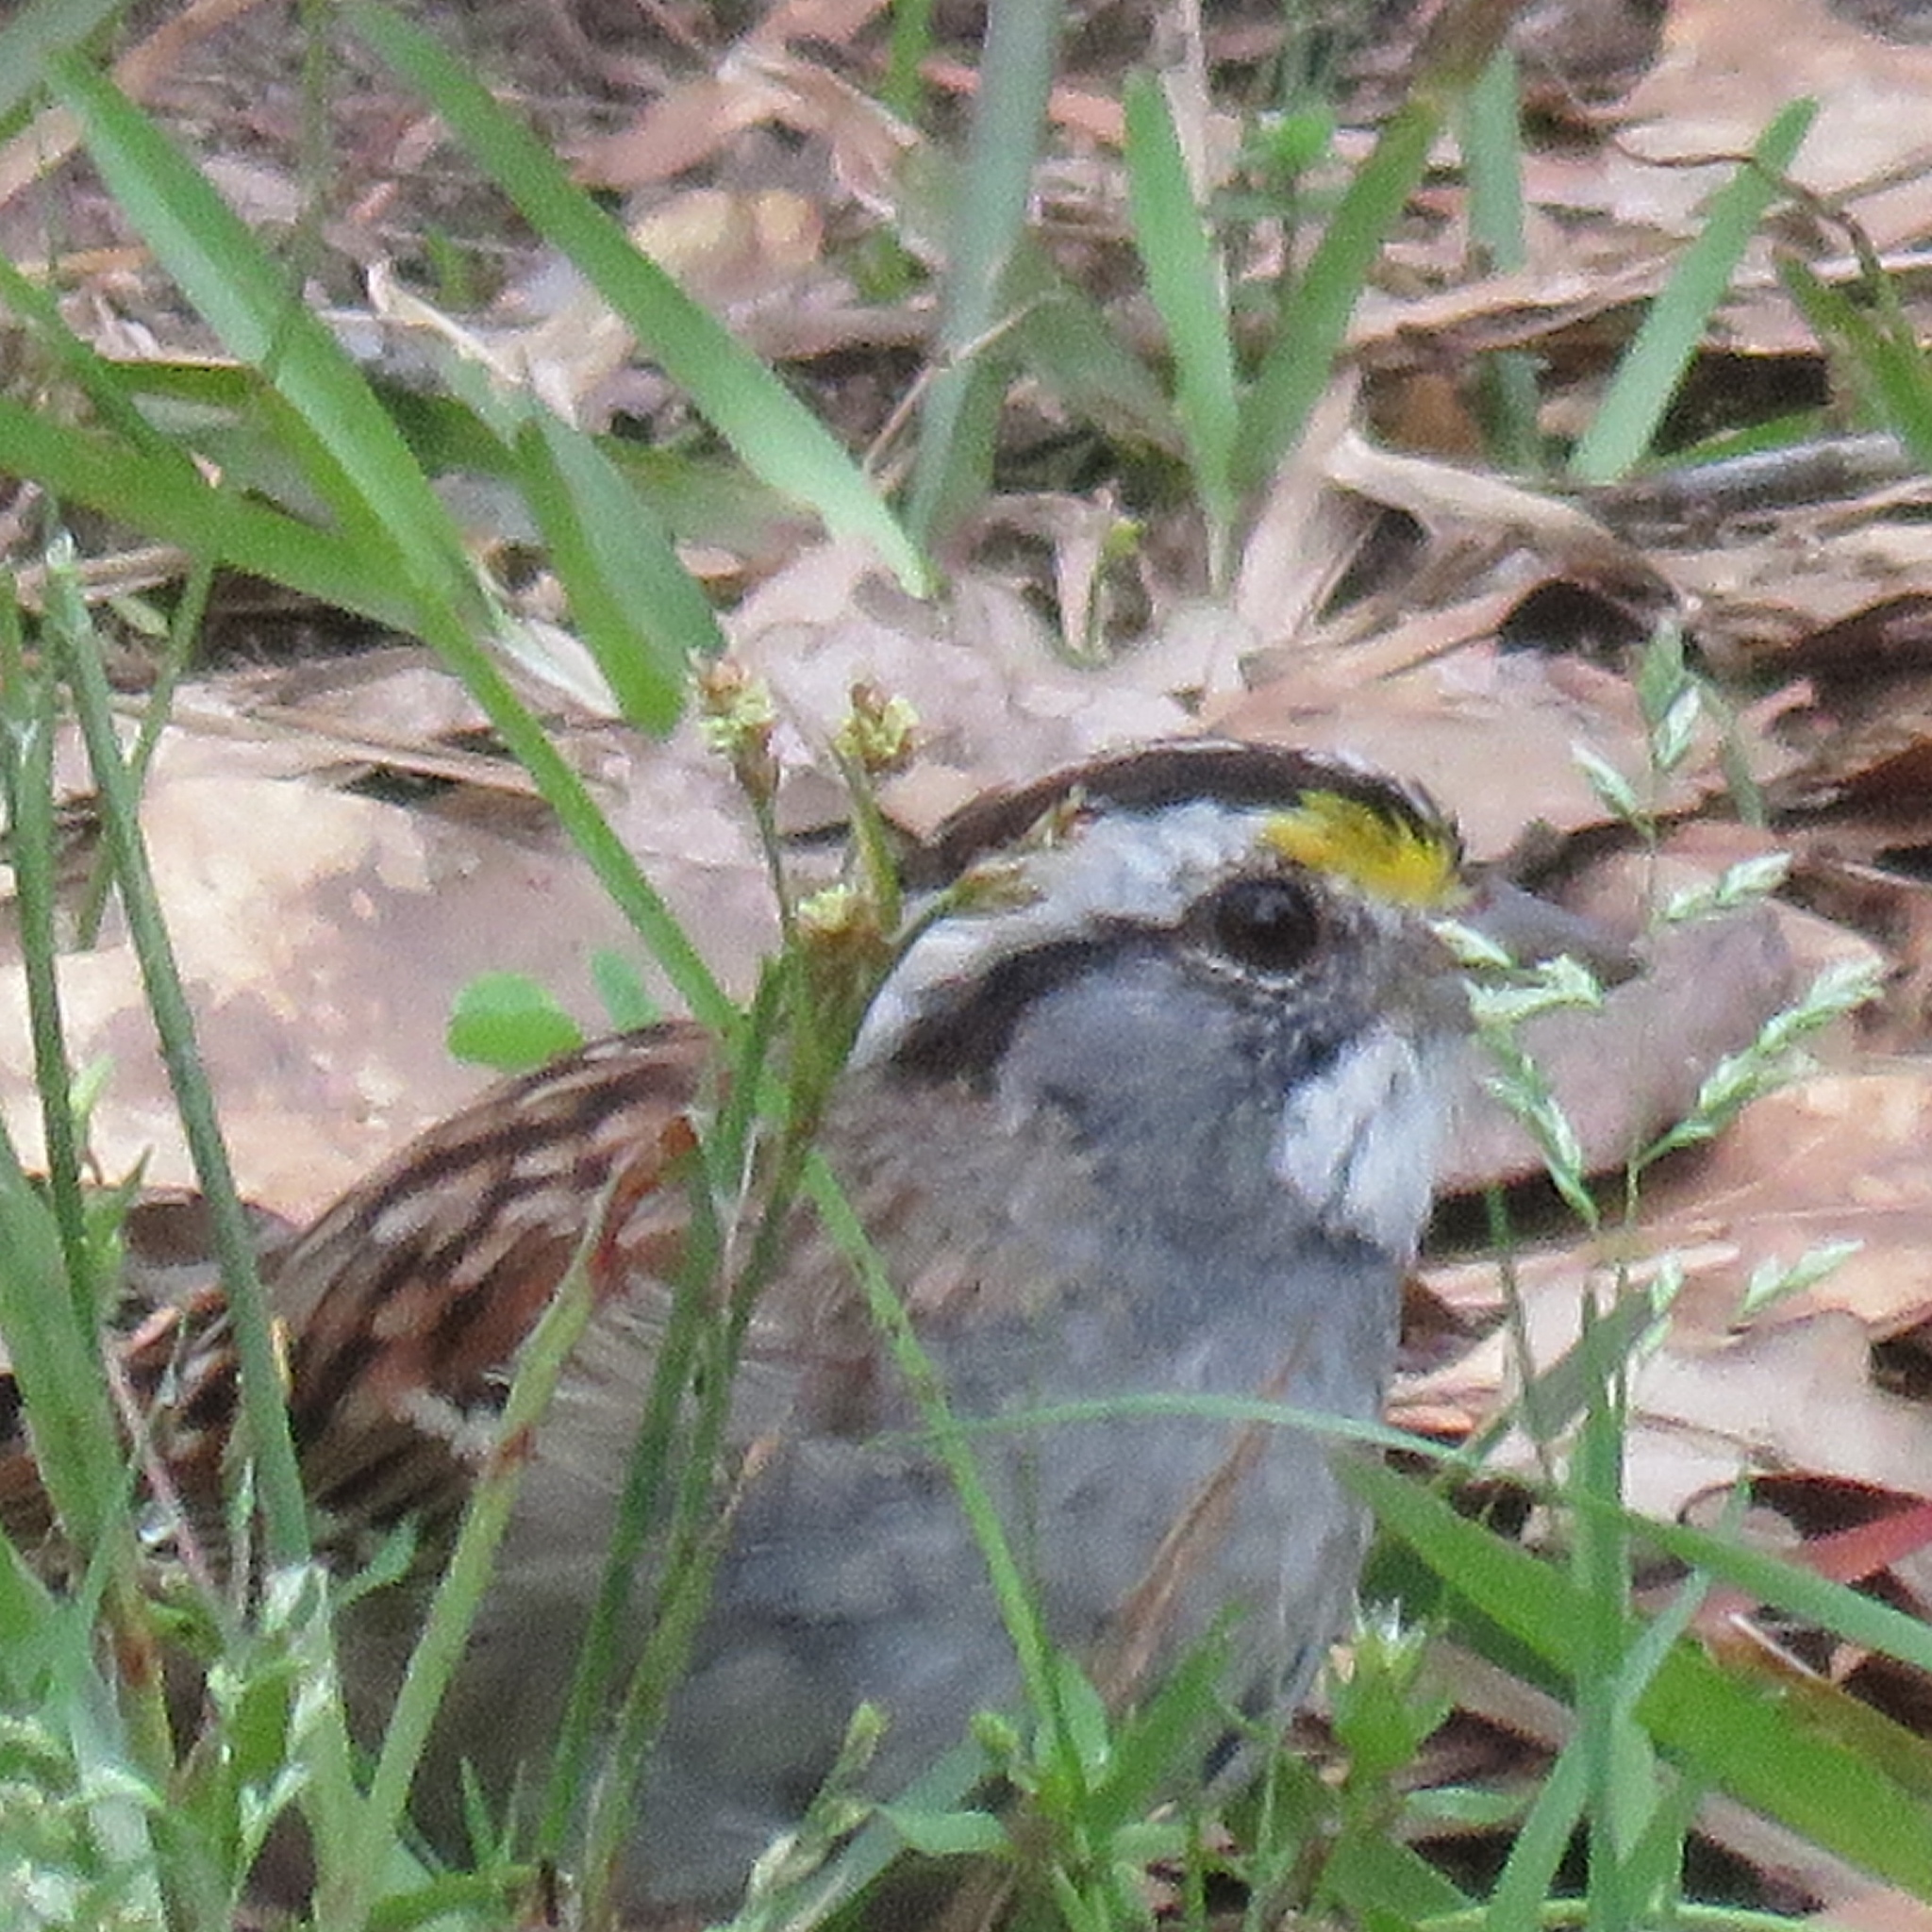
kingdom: Animalia
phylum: Chordata
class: Aves
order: Passeriformes
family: Passerellidae
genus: Zonotrichia
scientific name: Zonotrichia albicollis
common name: White-throated sparrow
